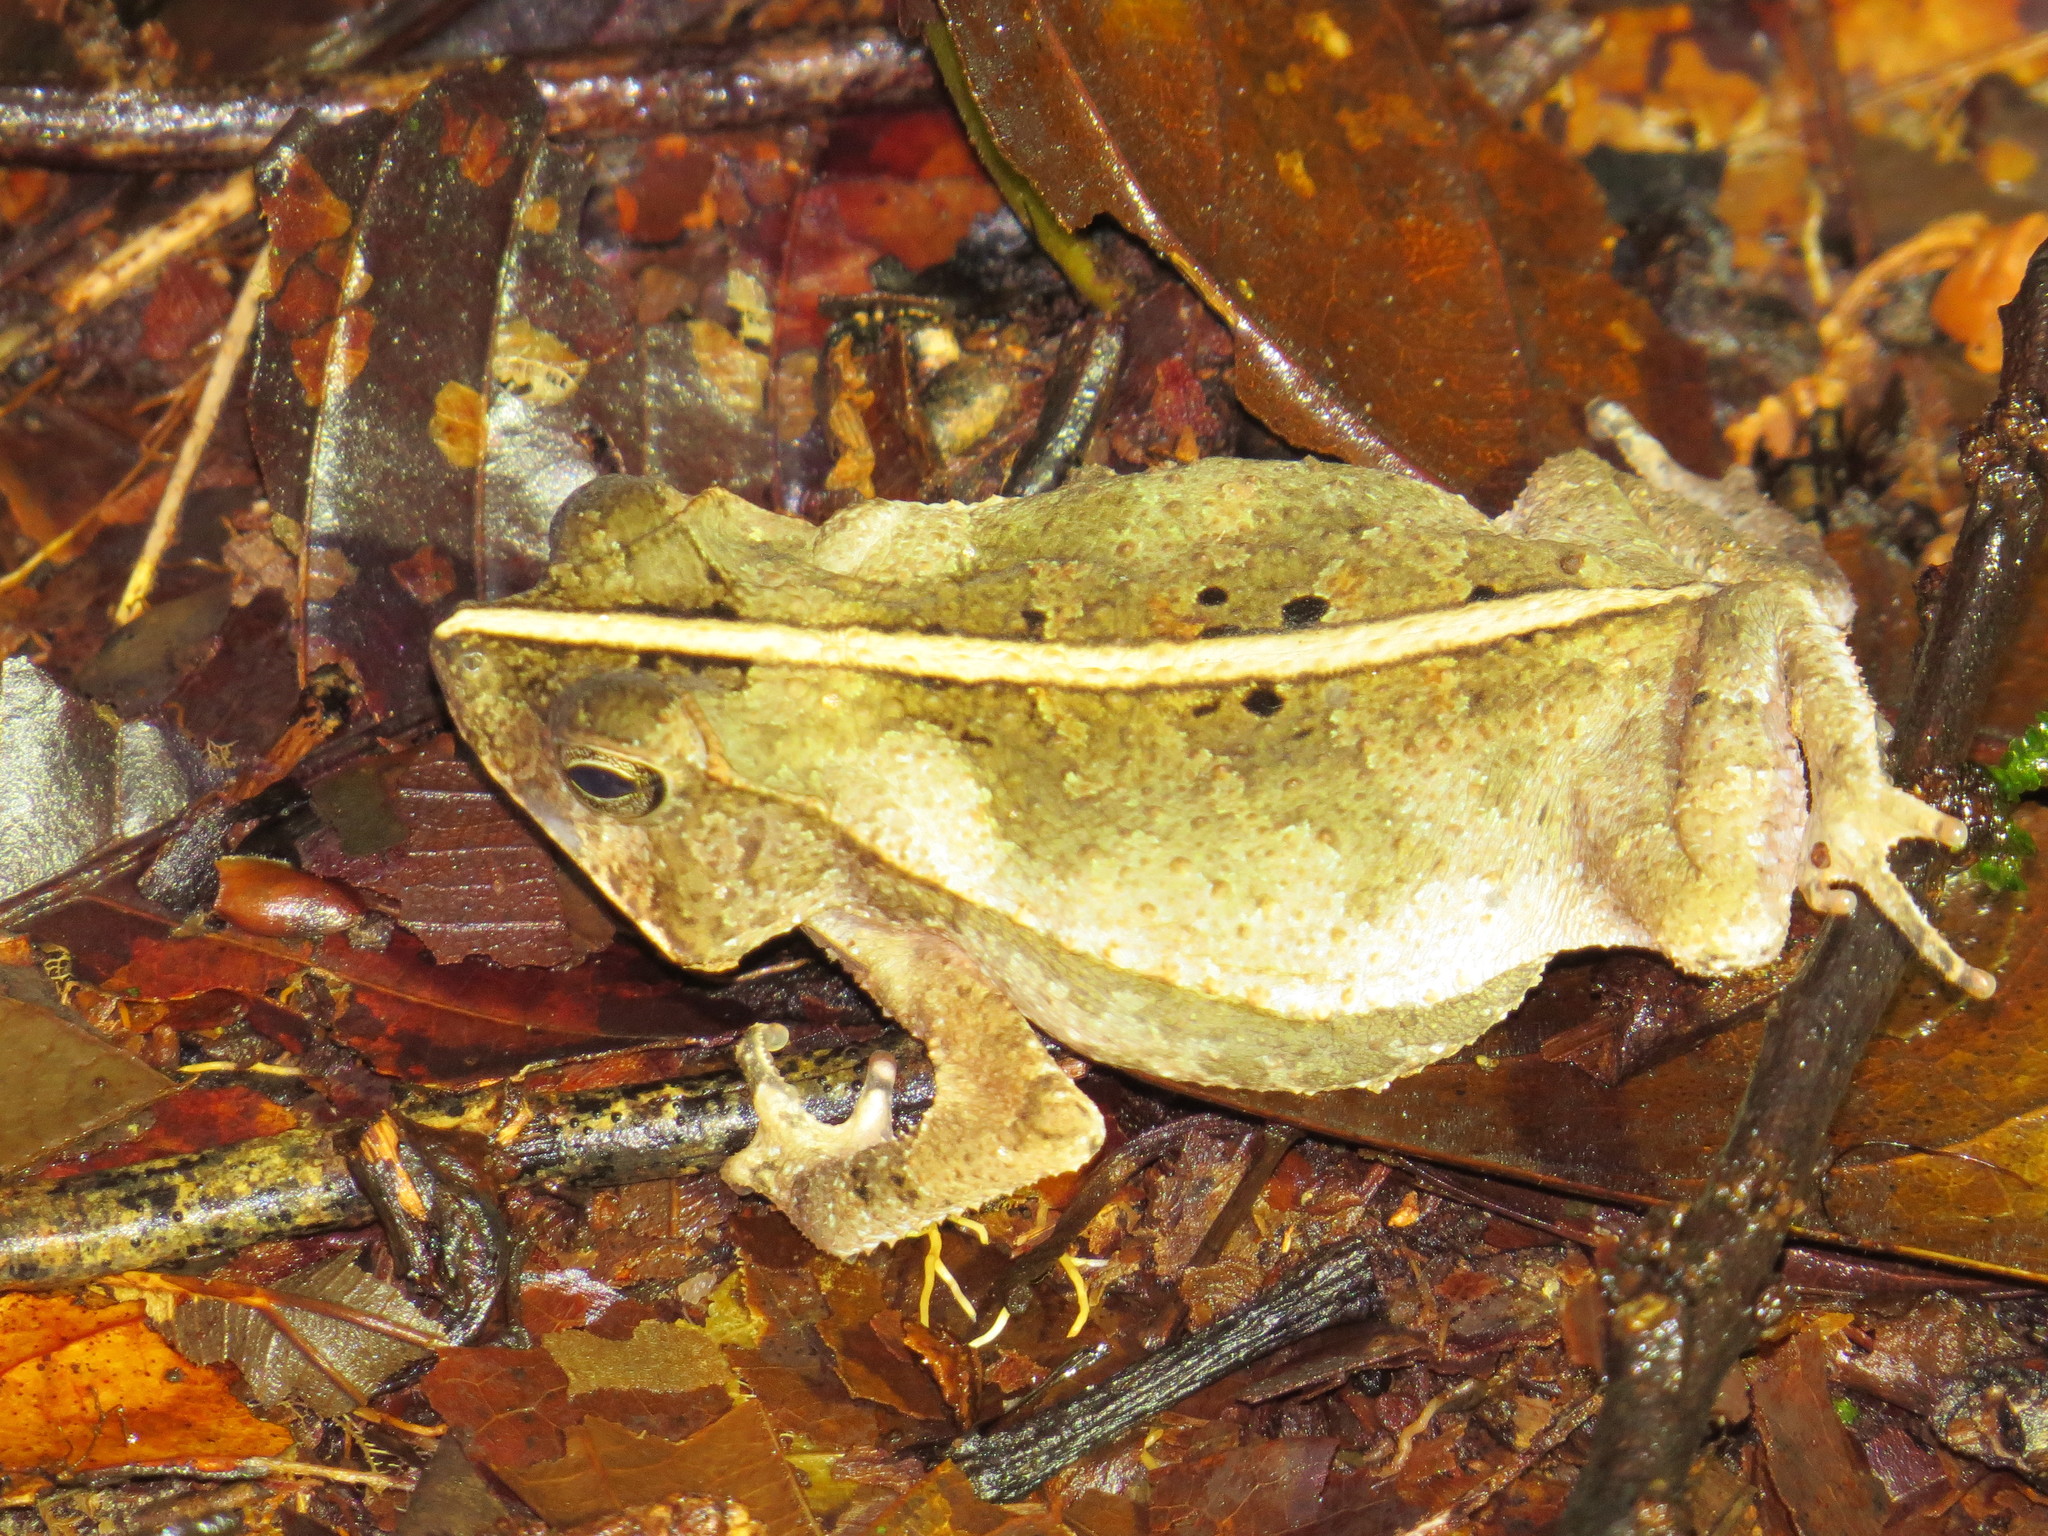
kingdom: Animalia
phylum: Chordata
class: Amphibia
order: Anura
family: Bufonidae
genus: Rhinella
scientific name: Rhinella margaritifera
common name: Mitred toad
